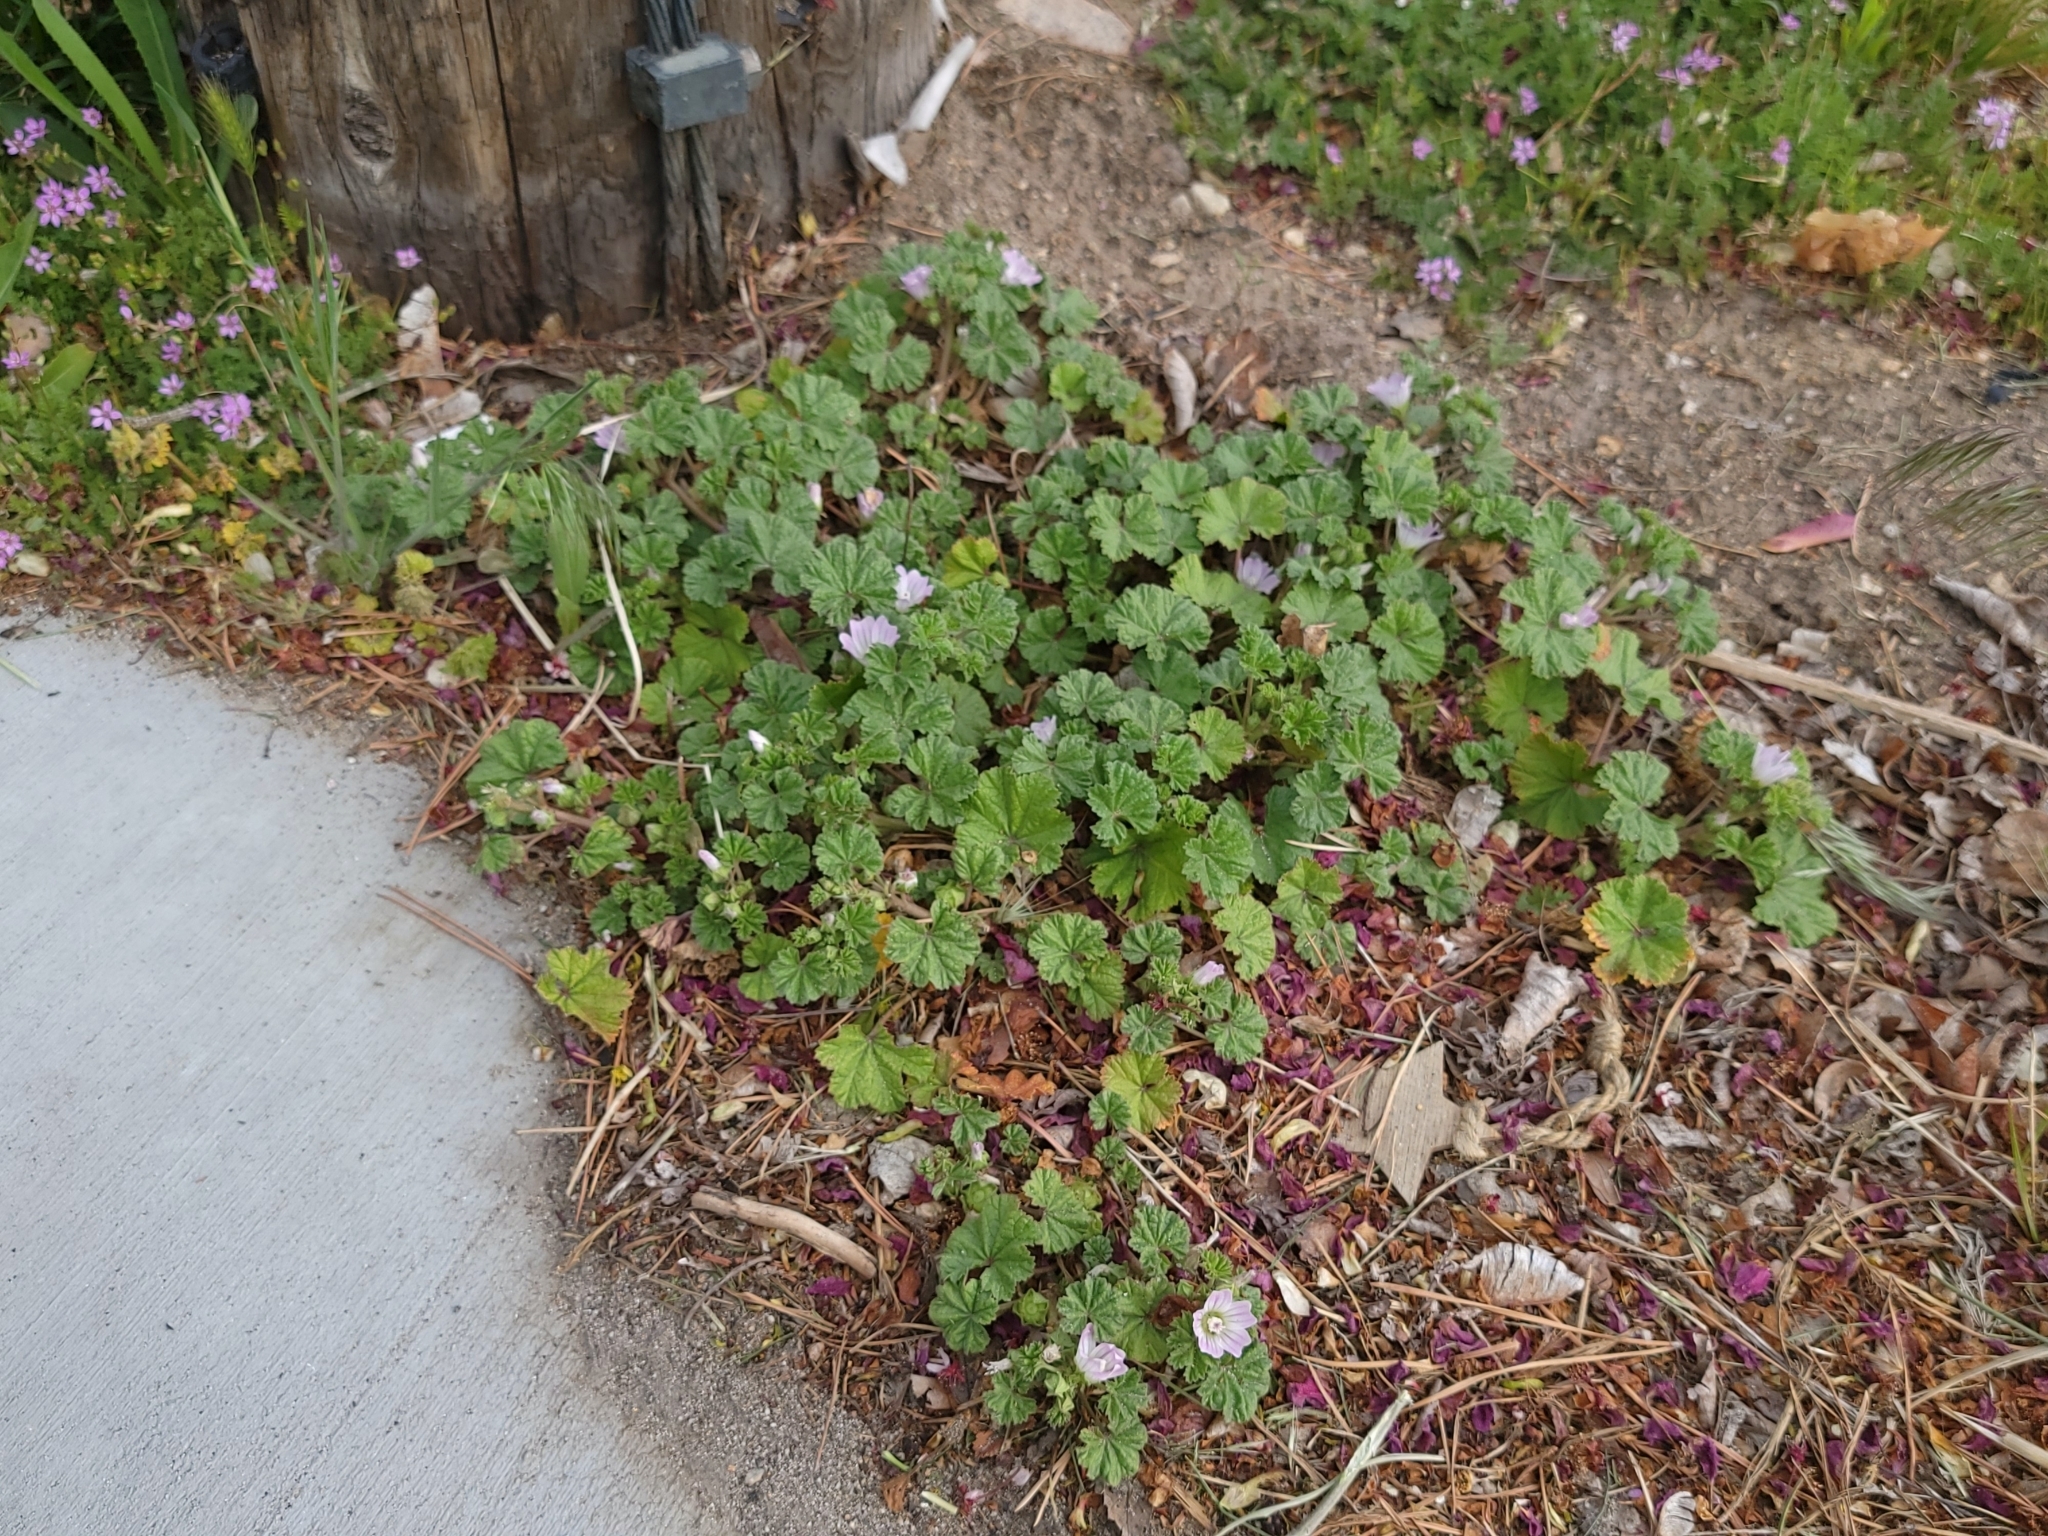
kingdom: Plantae
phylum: Tracheophyta
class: Magnoliopsida
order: Malvales
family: Malvaceae
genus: Malva
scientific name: Malva neglecta
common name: Common mallow
